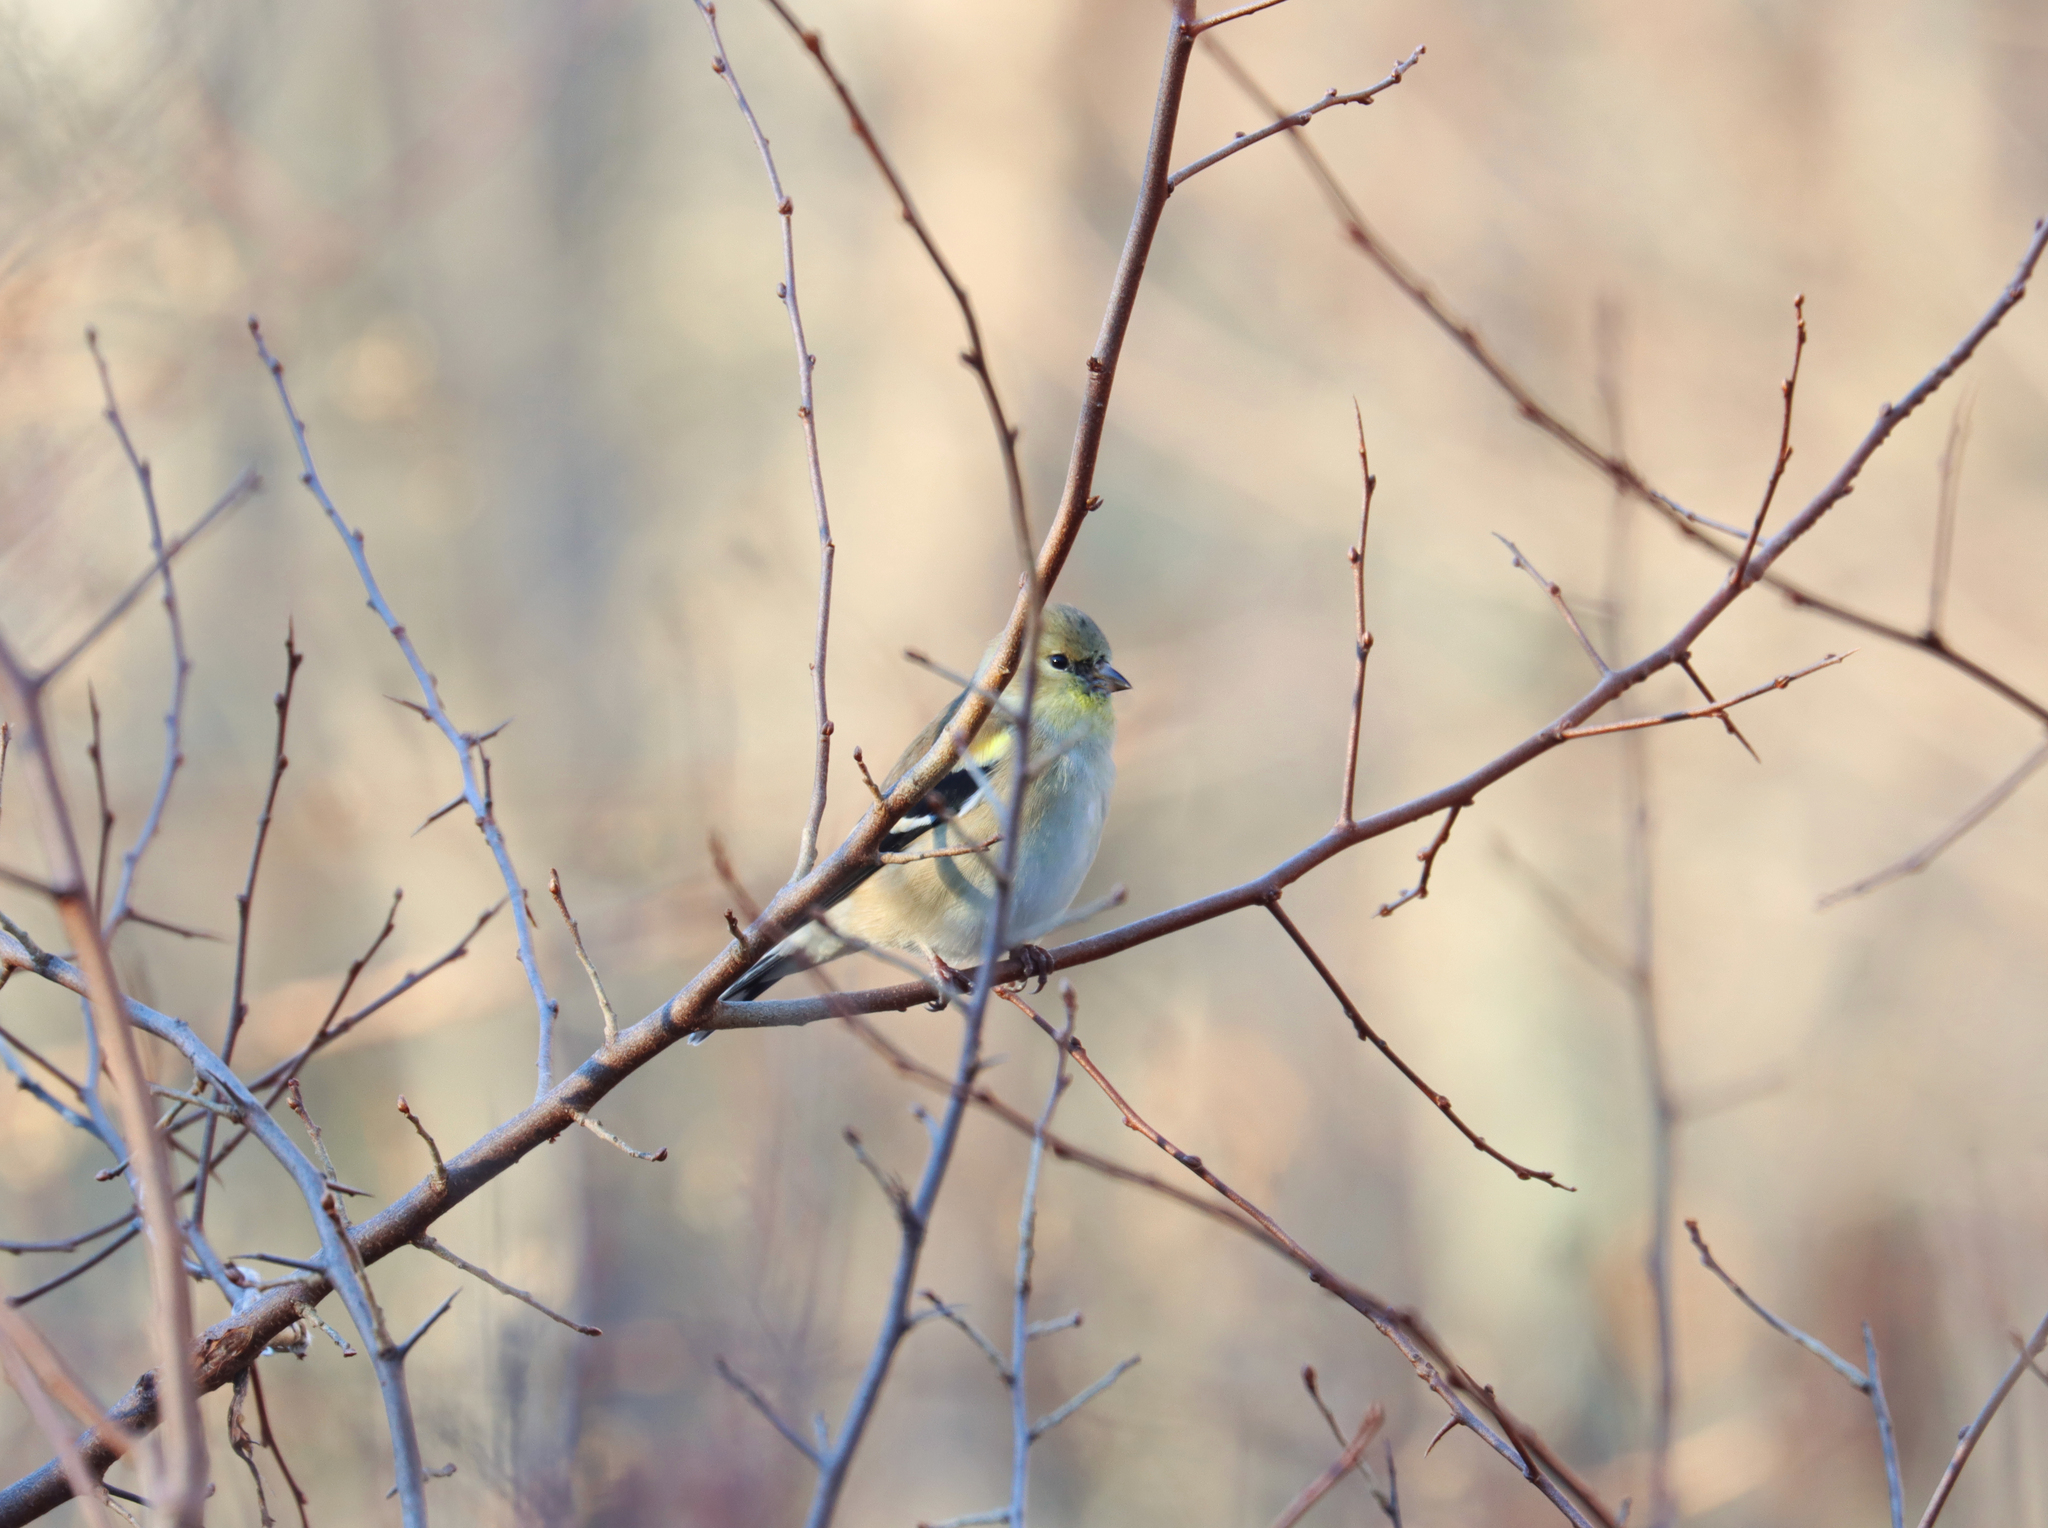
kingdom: Animalia
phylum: Chordata
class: Aves
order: Passeriformes
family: Fringillidae
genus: Spinus
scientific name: Spinus tristis
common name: American goldfinch
